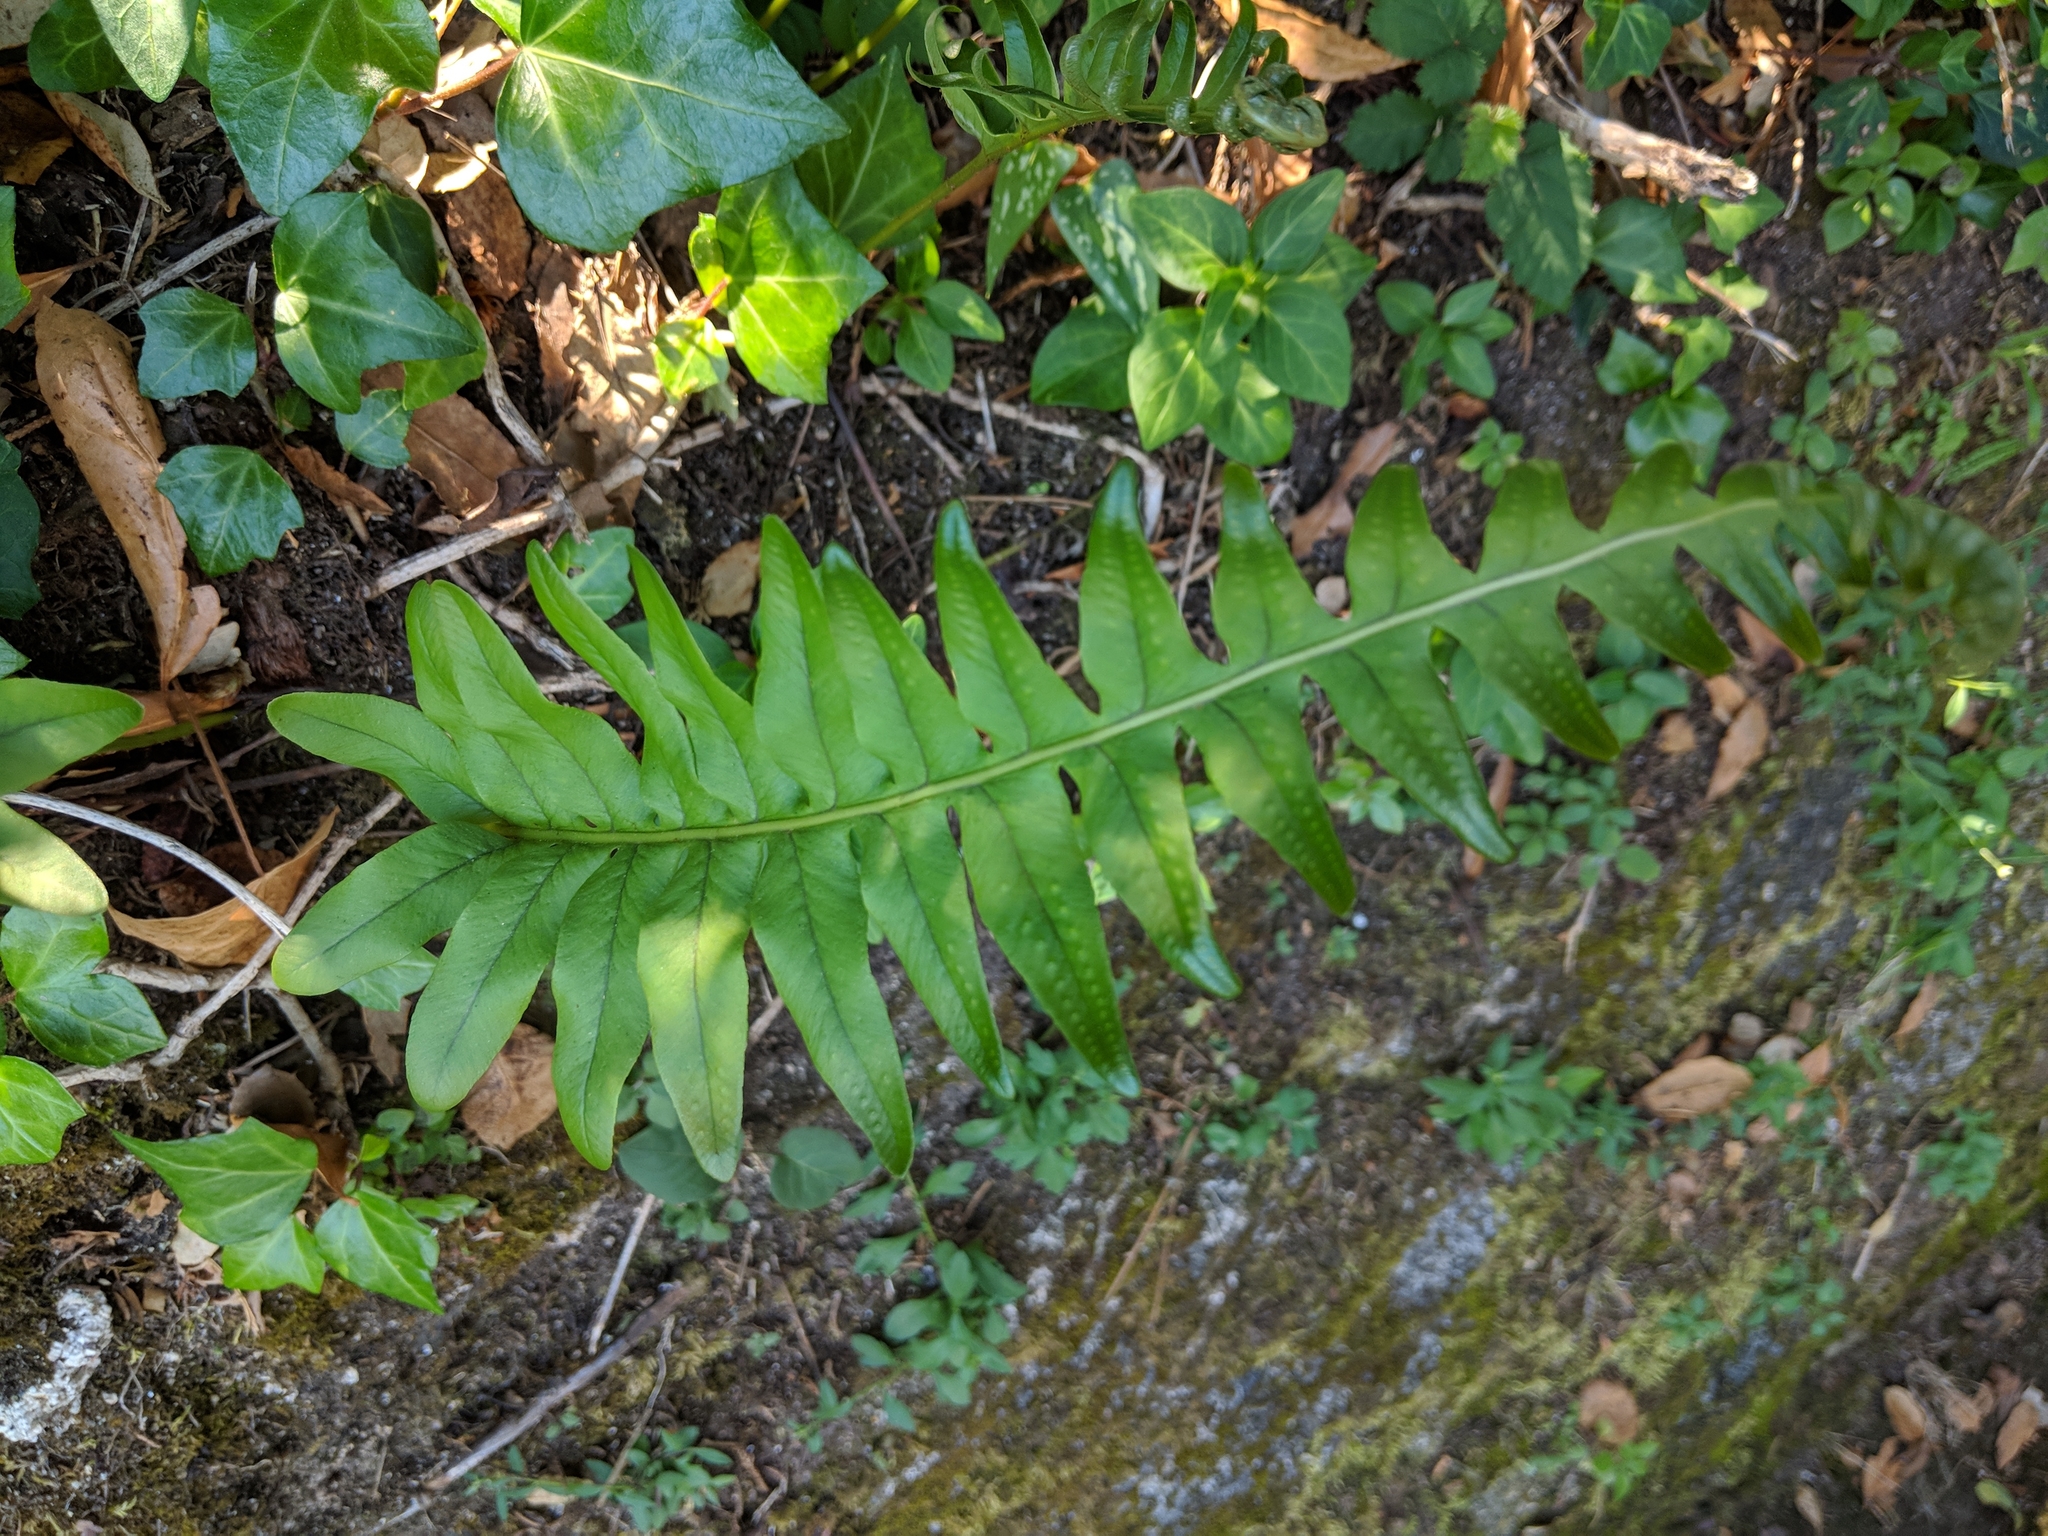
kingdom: Plantae
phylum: Tracheophyta
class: Polypodiopsida
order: Polypodiales
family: Polypodiaceae
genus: Polypodium
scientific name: Polypodium interjectum
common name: Intermediate polypody
